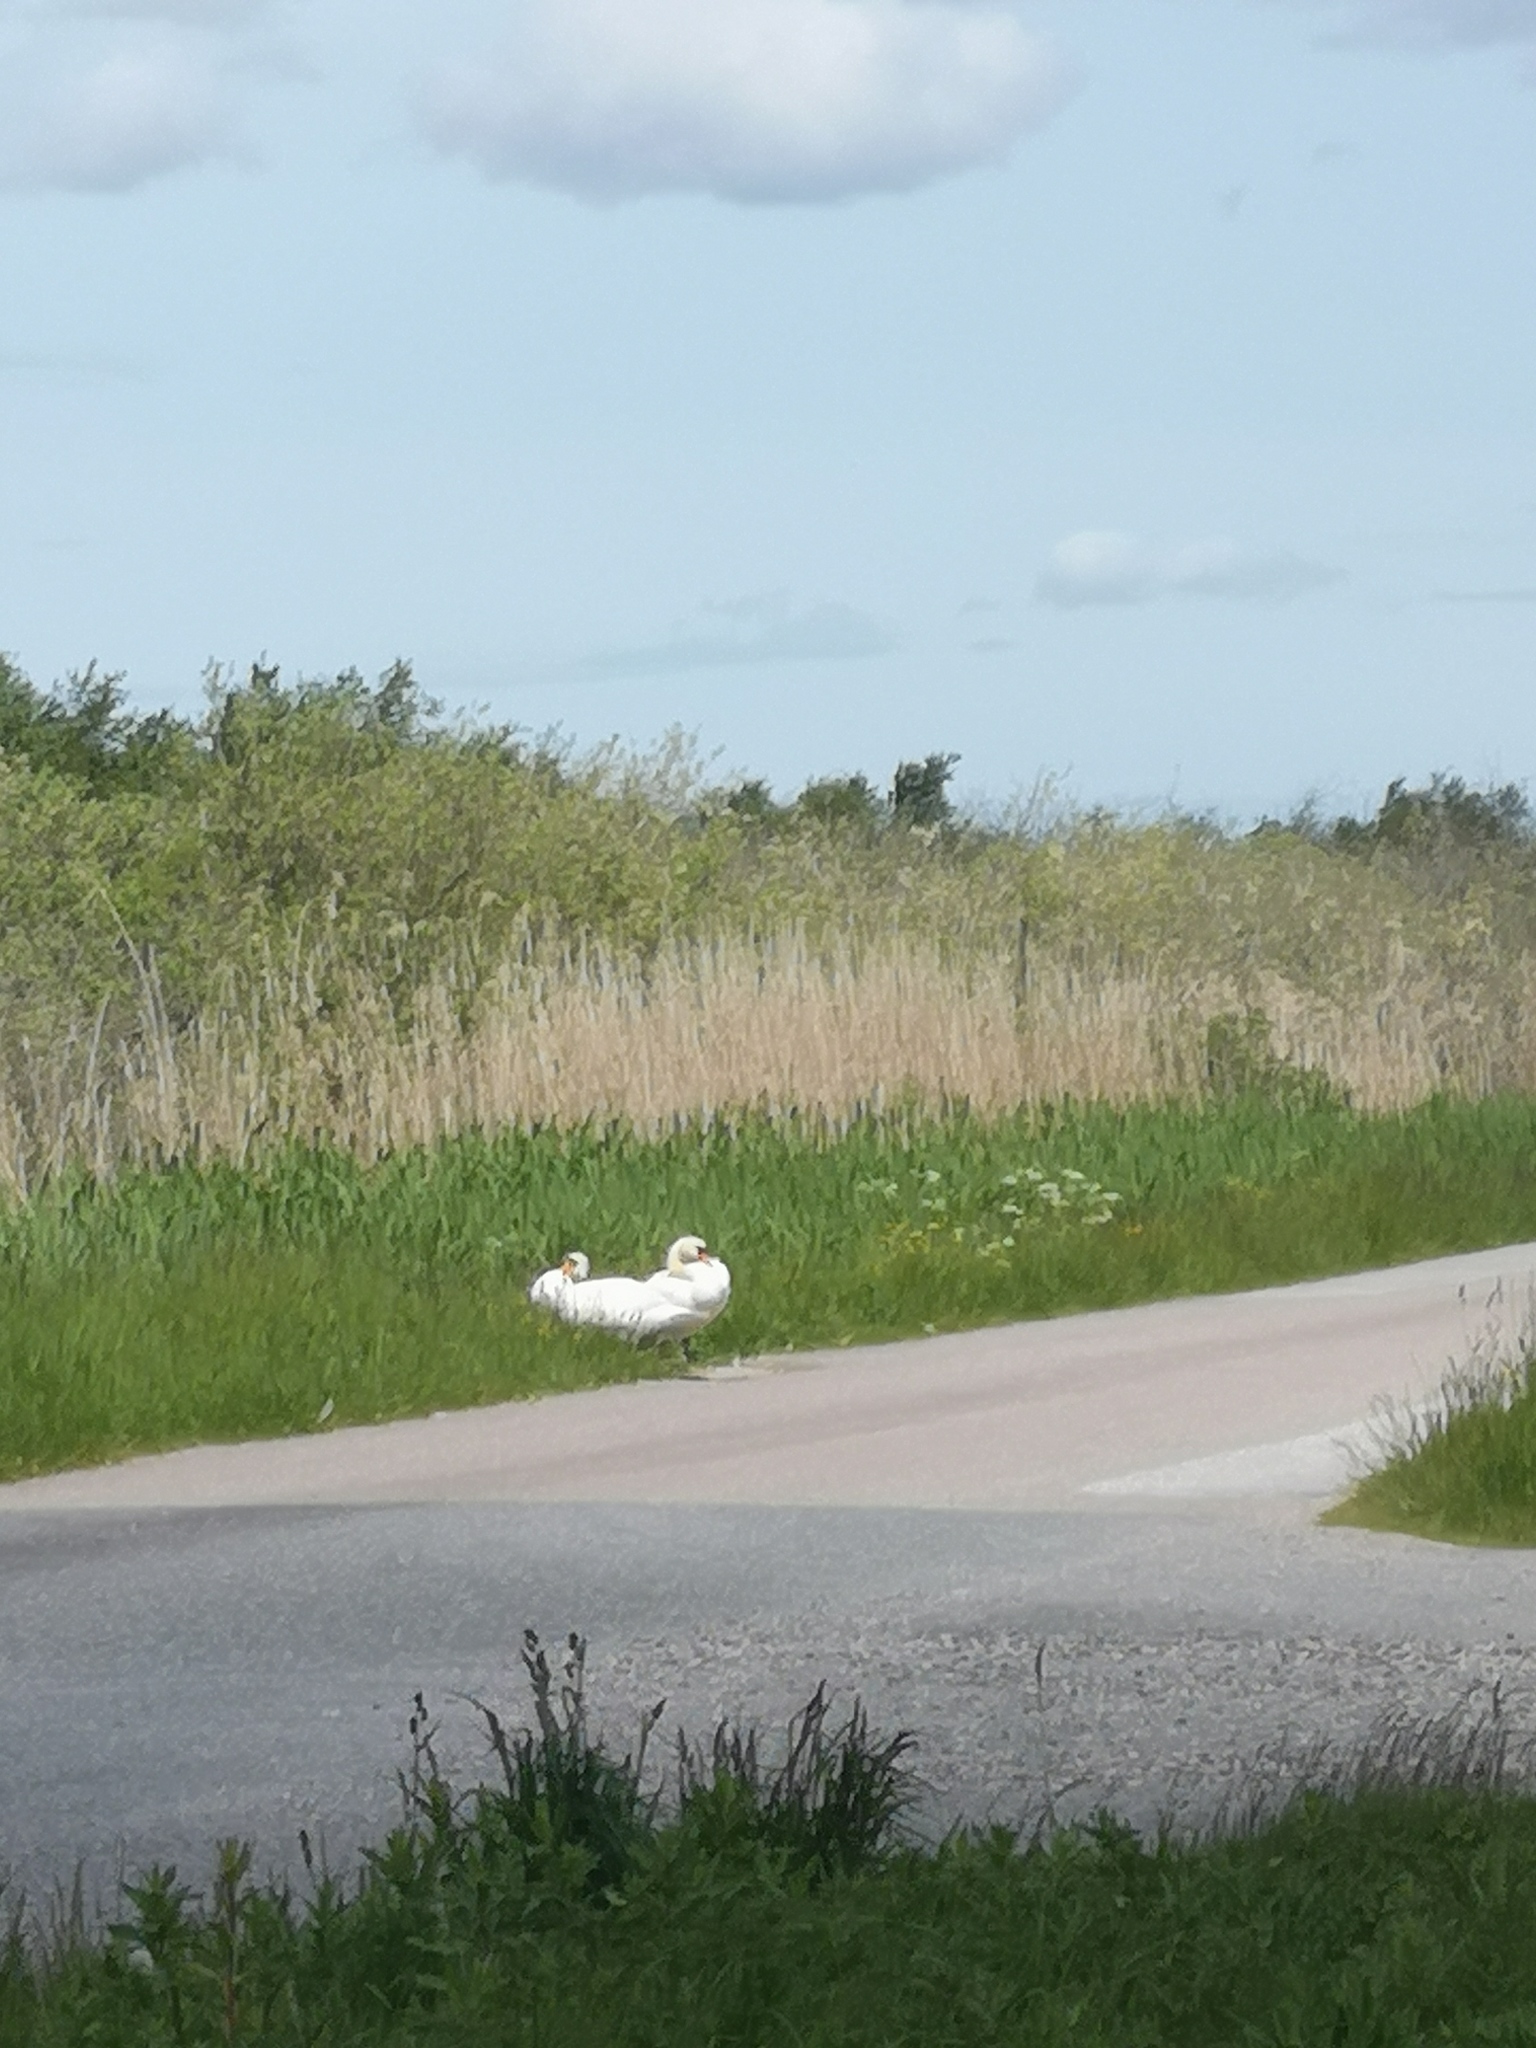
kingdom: Animalia
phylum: Chordata
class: Aves
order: Anseriformes
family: Anatidae
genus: Cygnus
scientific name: Cygnus olor
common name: Mute swan
